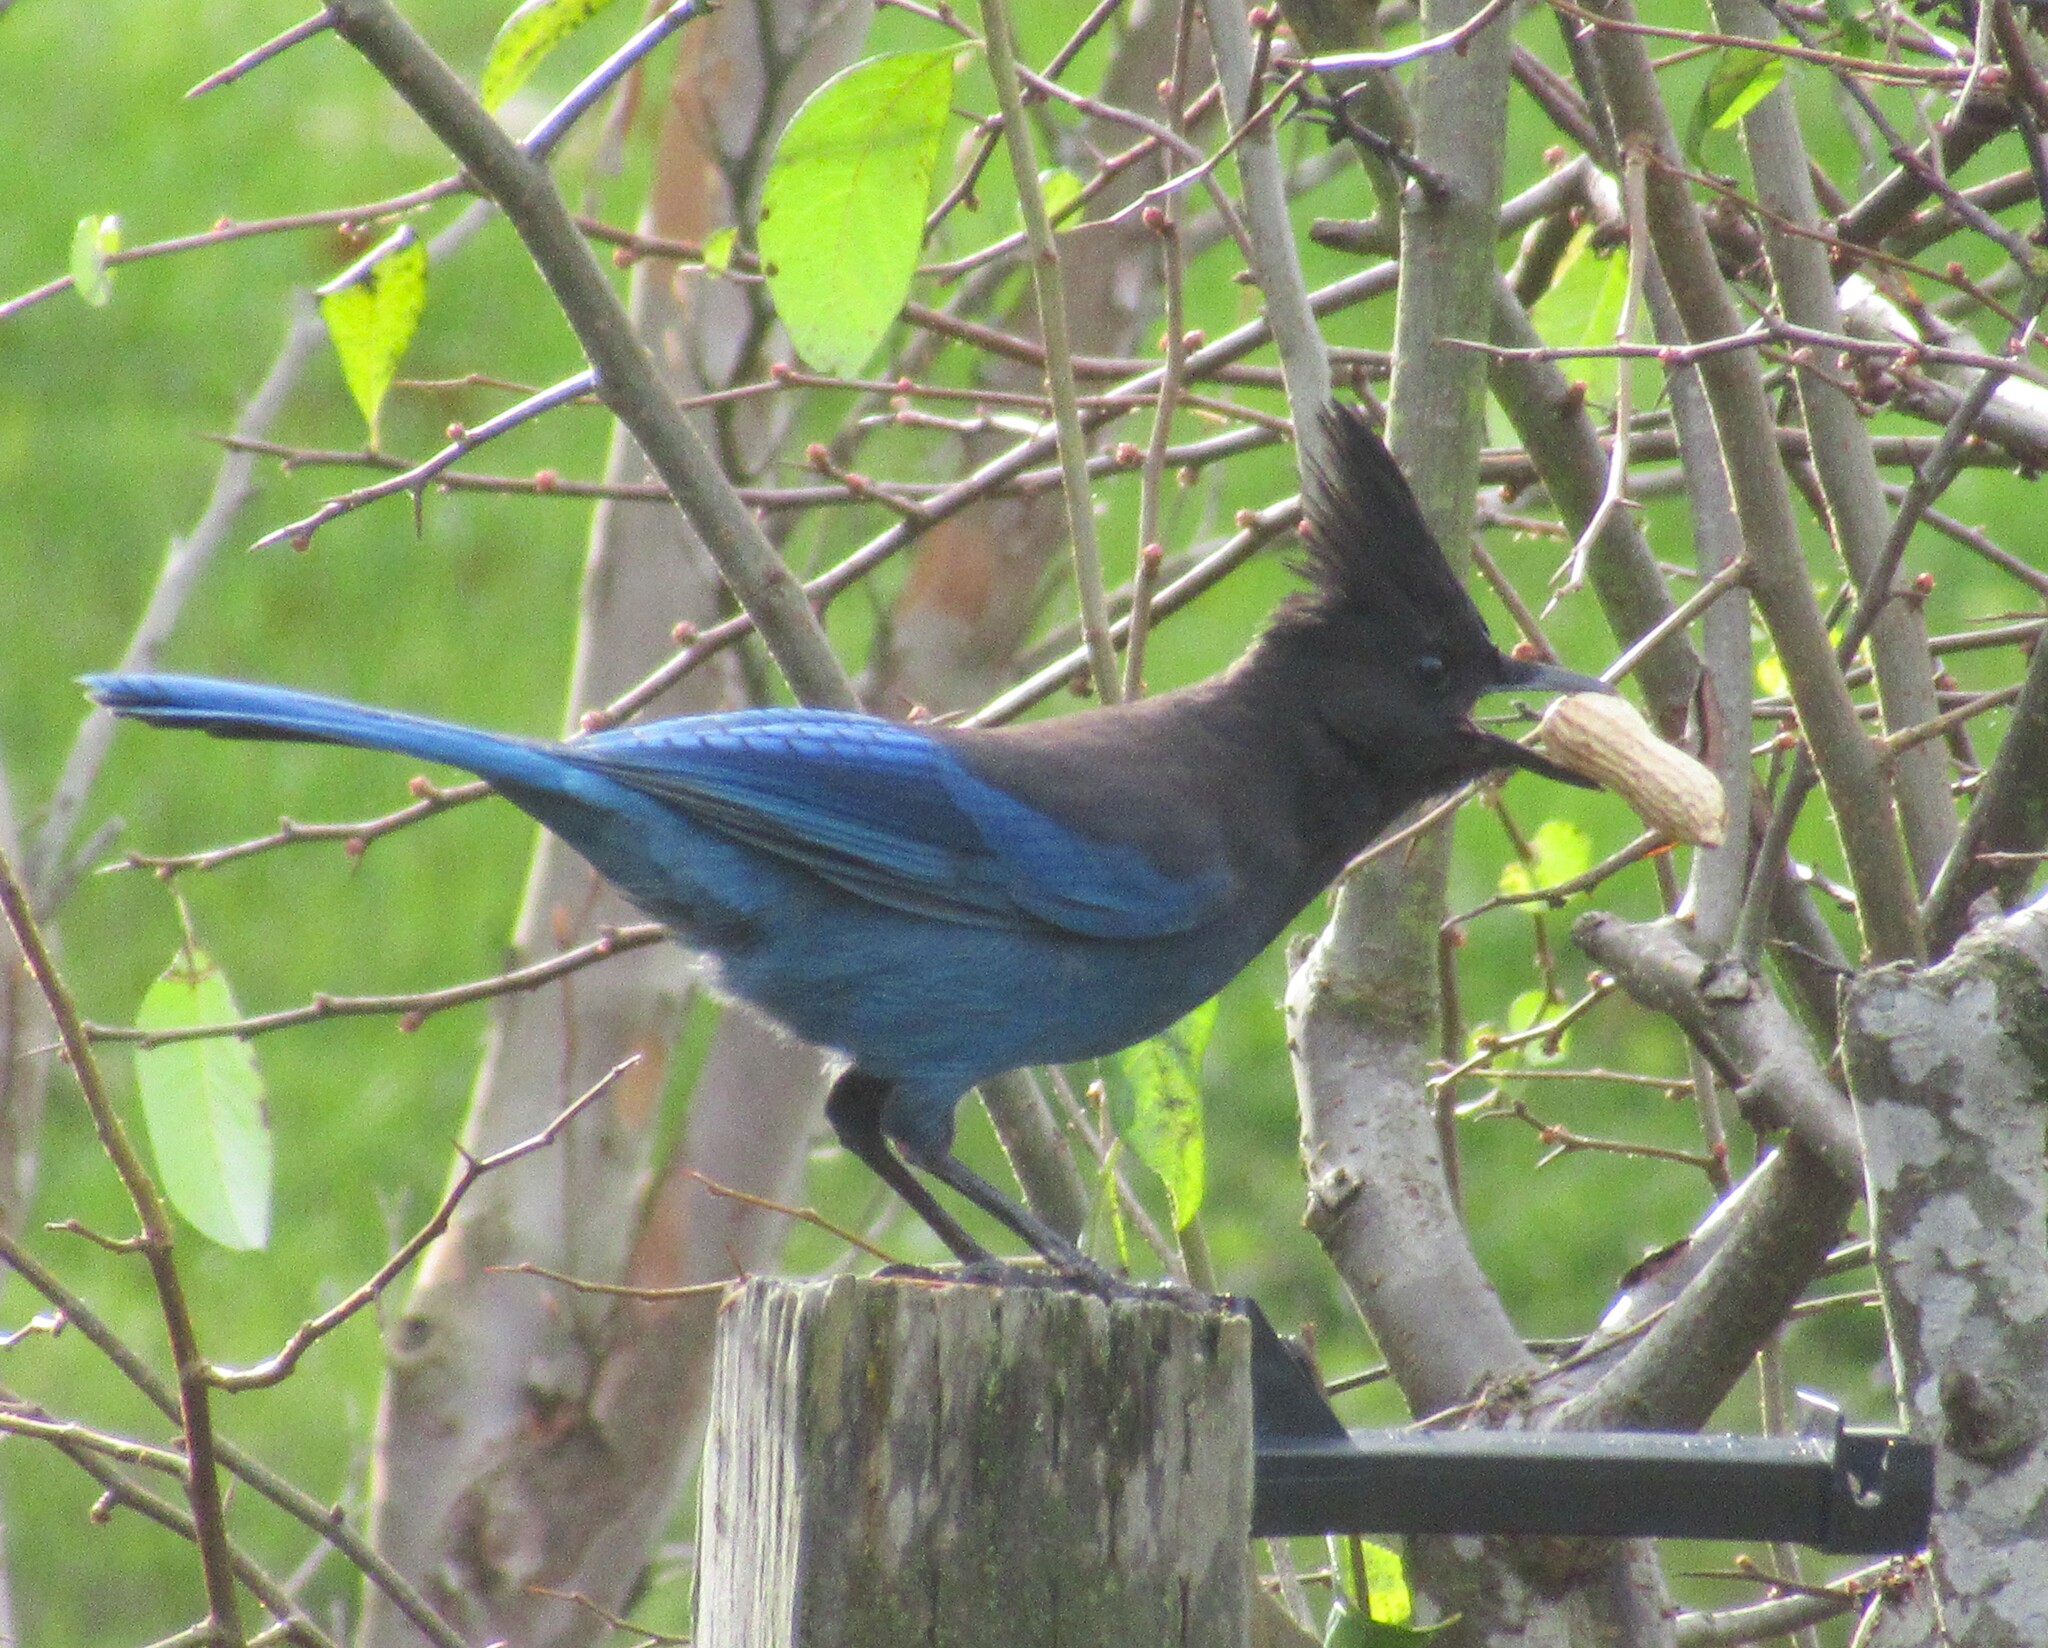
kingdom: Animalia
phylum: Chordata
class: Aves
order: Passeriformes
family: Corvidae
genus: Cyanocitta
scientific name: Cyanocitta stelleri
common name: Steller's jay
